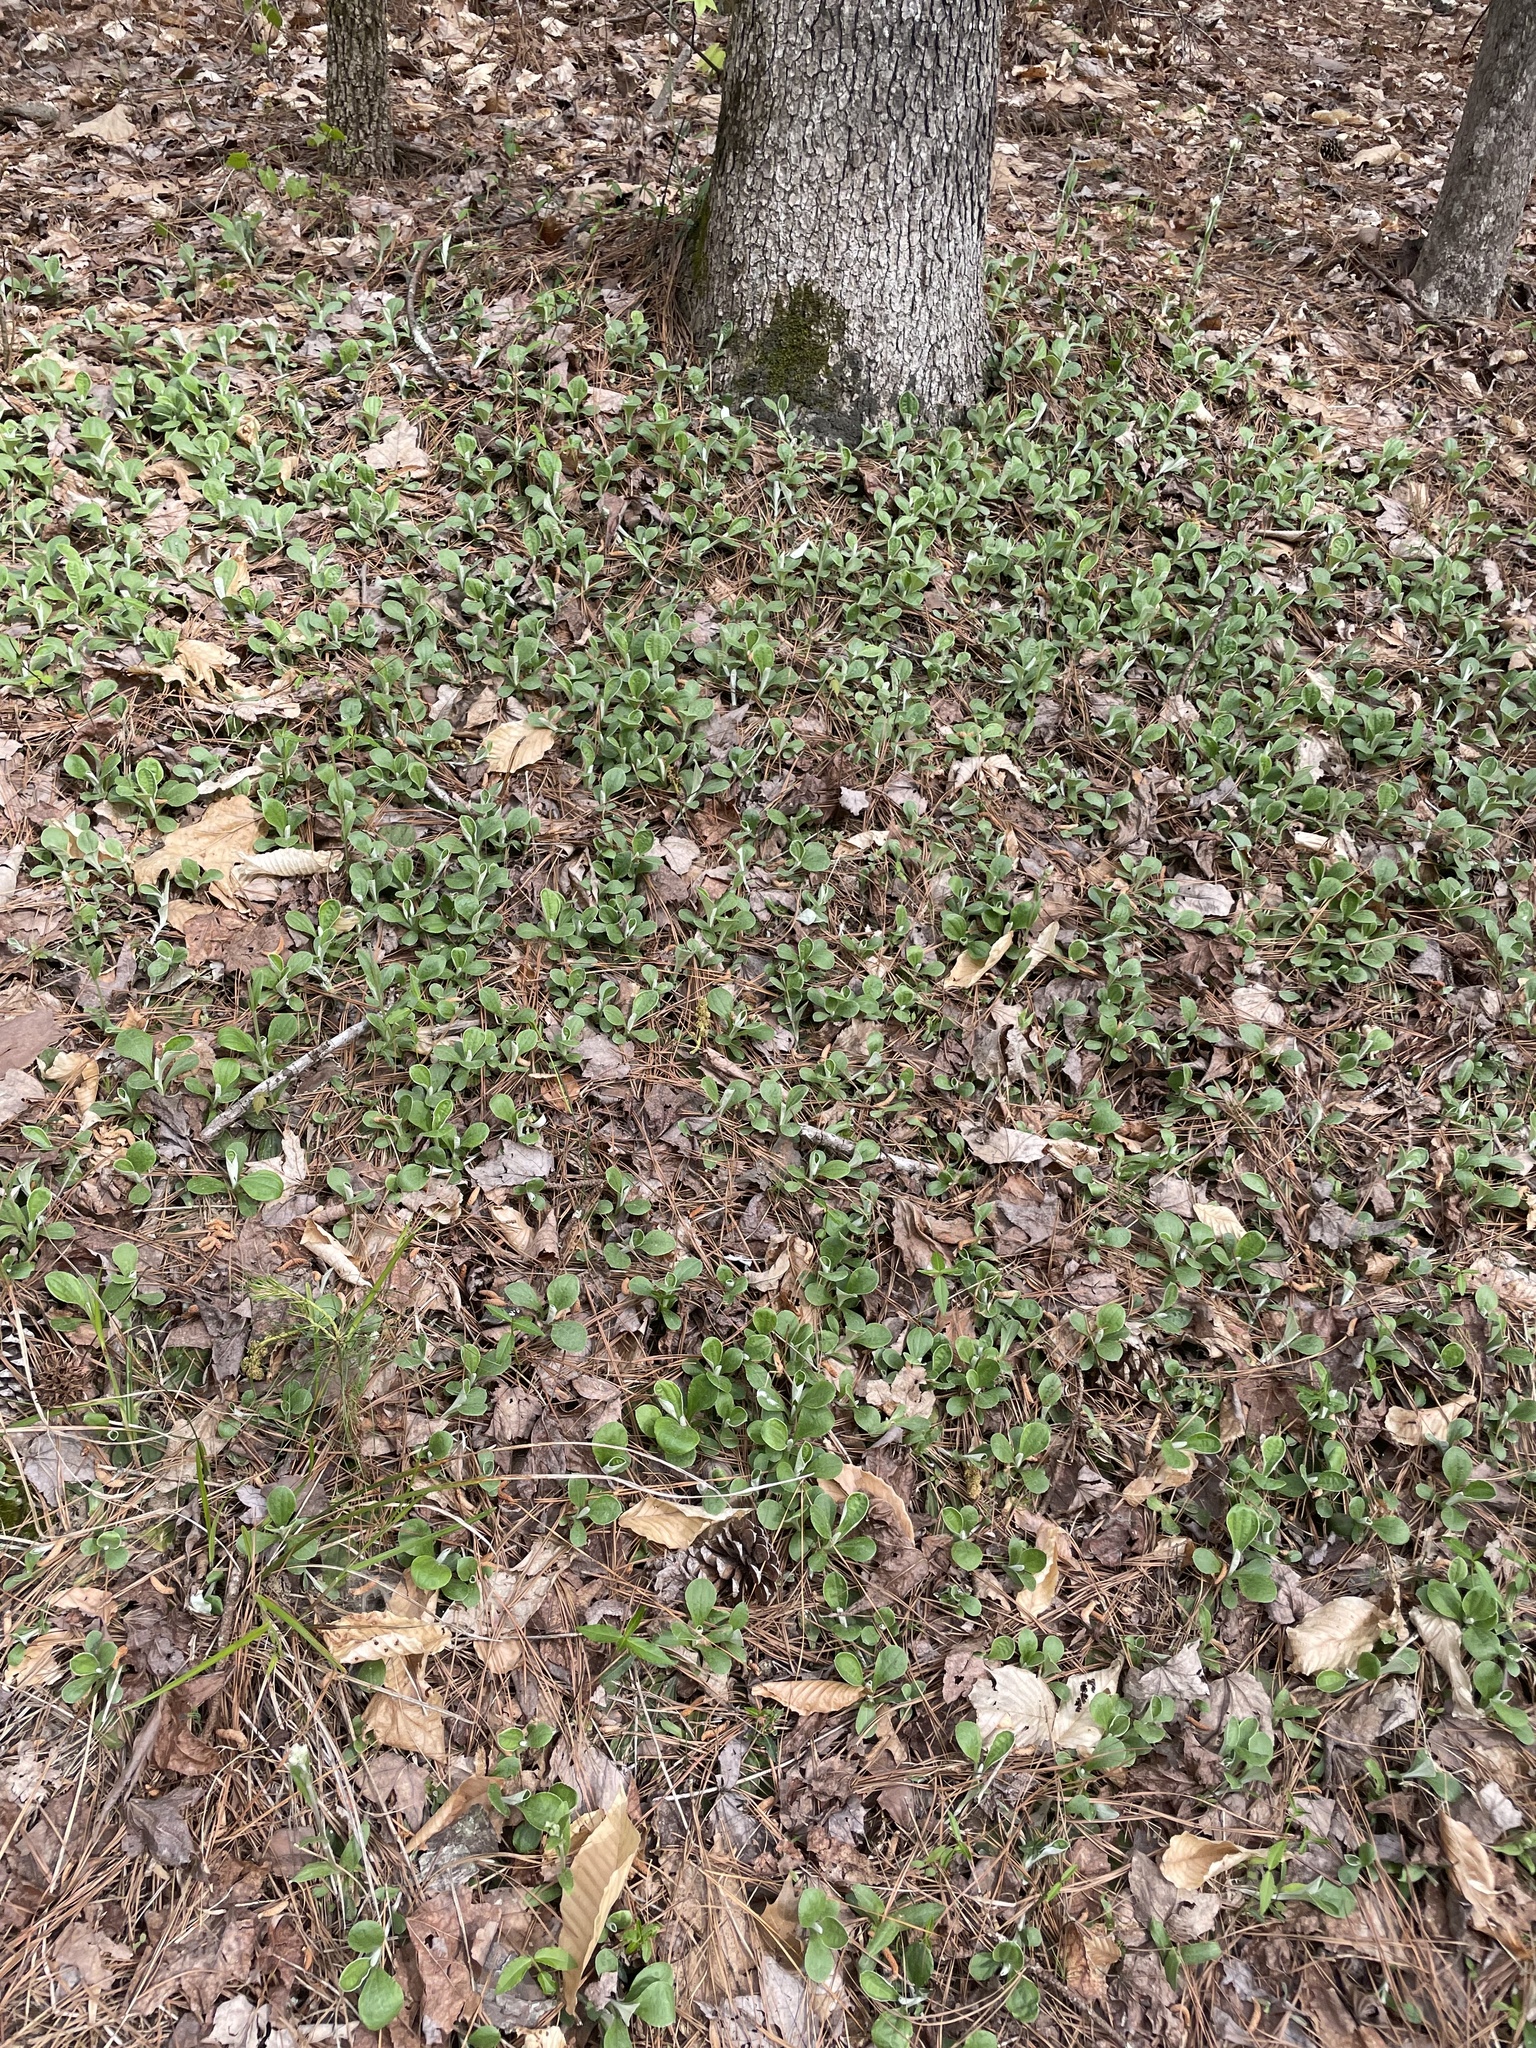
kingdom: Plantae
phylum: Tracheophyta
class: Magnoliopsida
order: Asterales
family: Asteraceae
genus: Antennaria
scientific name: Antennaria plantaginifolia
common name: Plantain-leaved pussytoes
